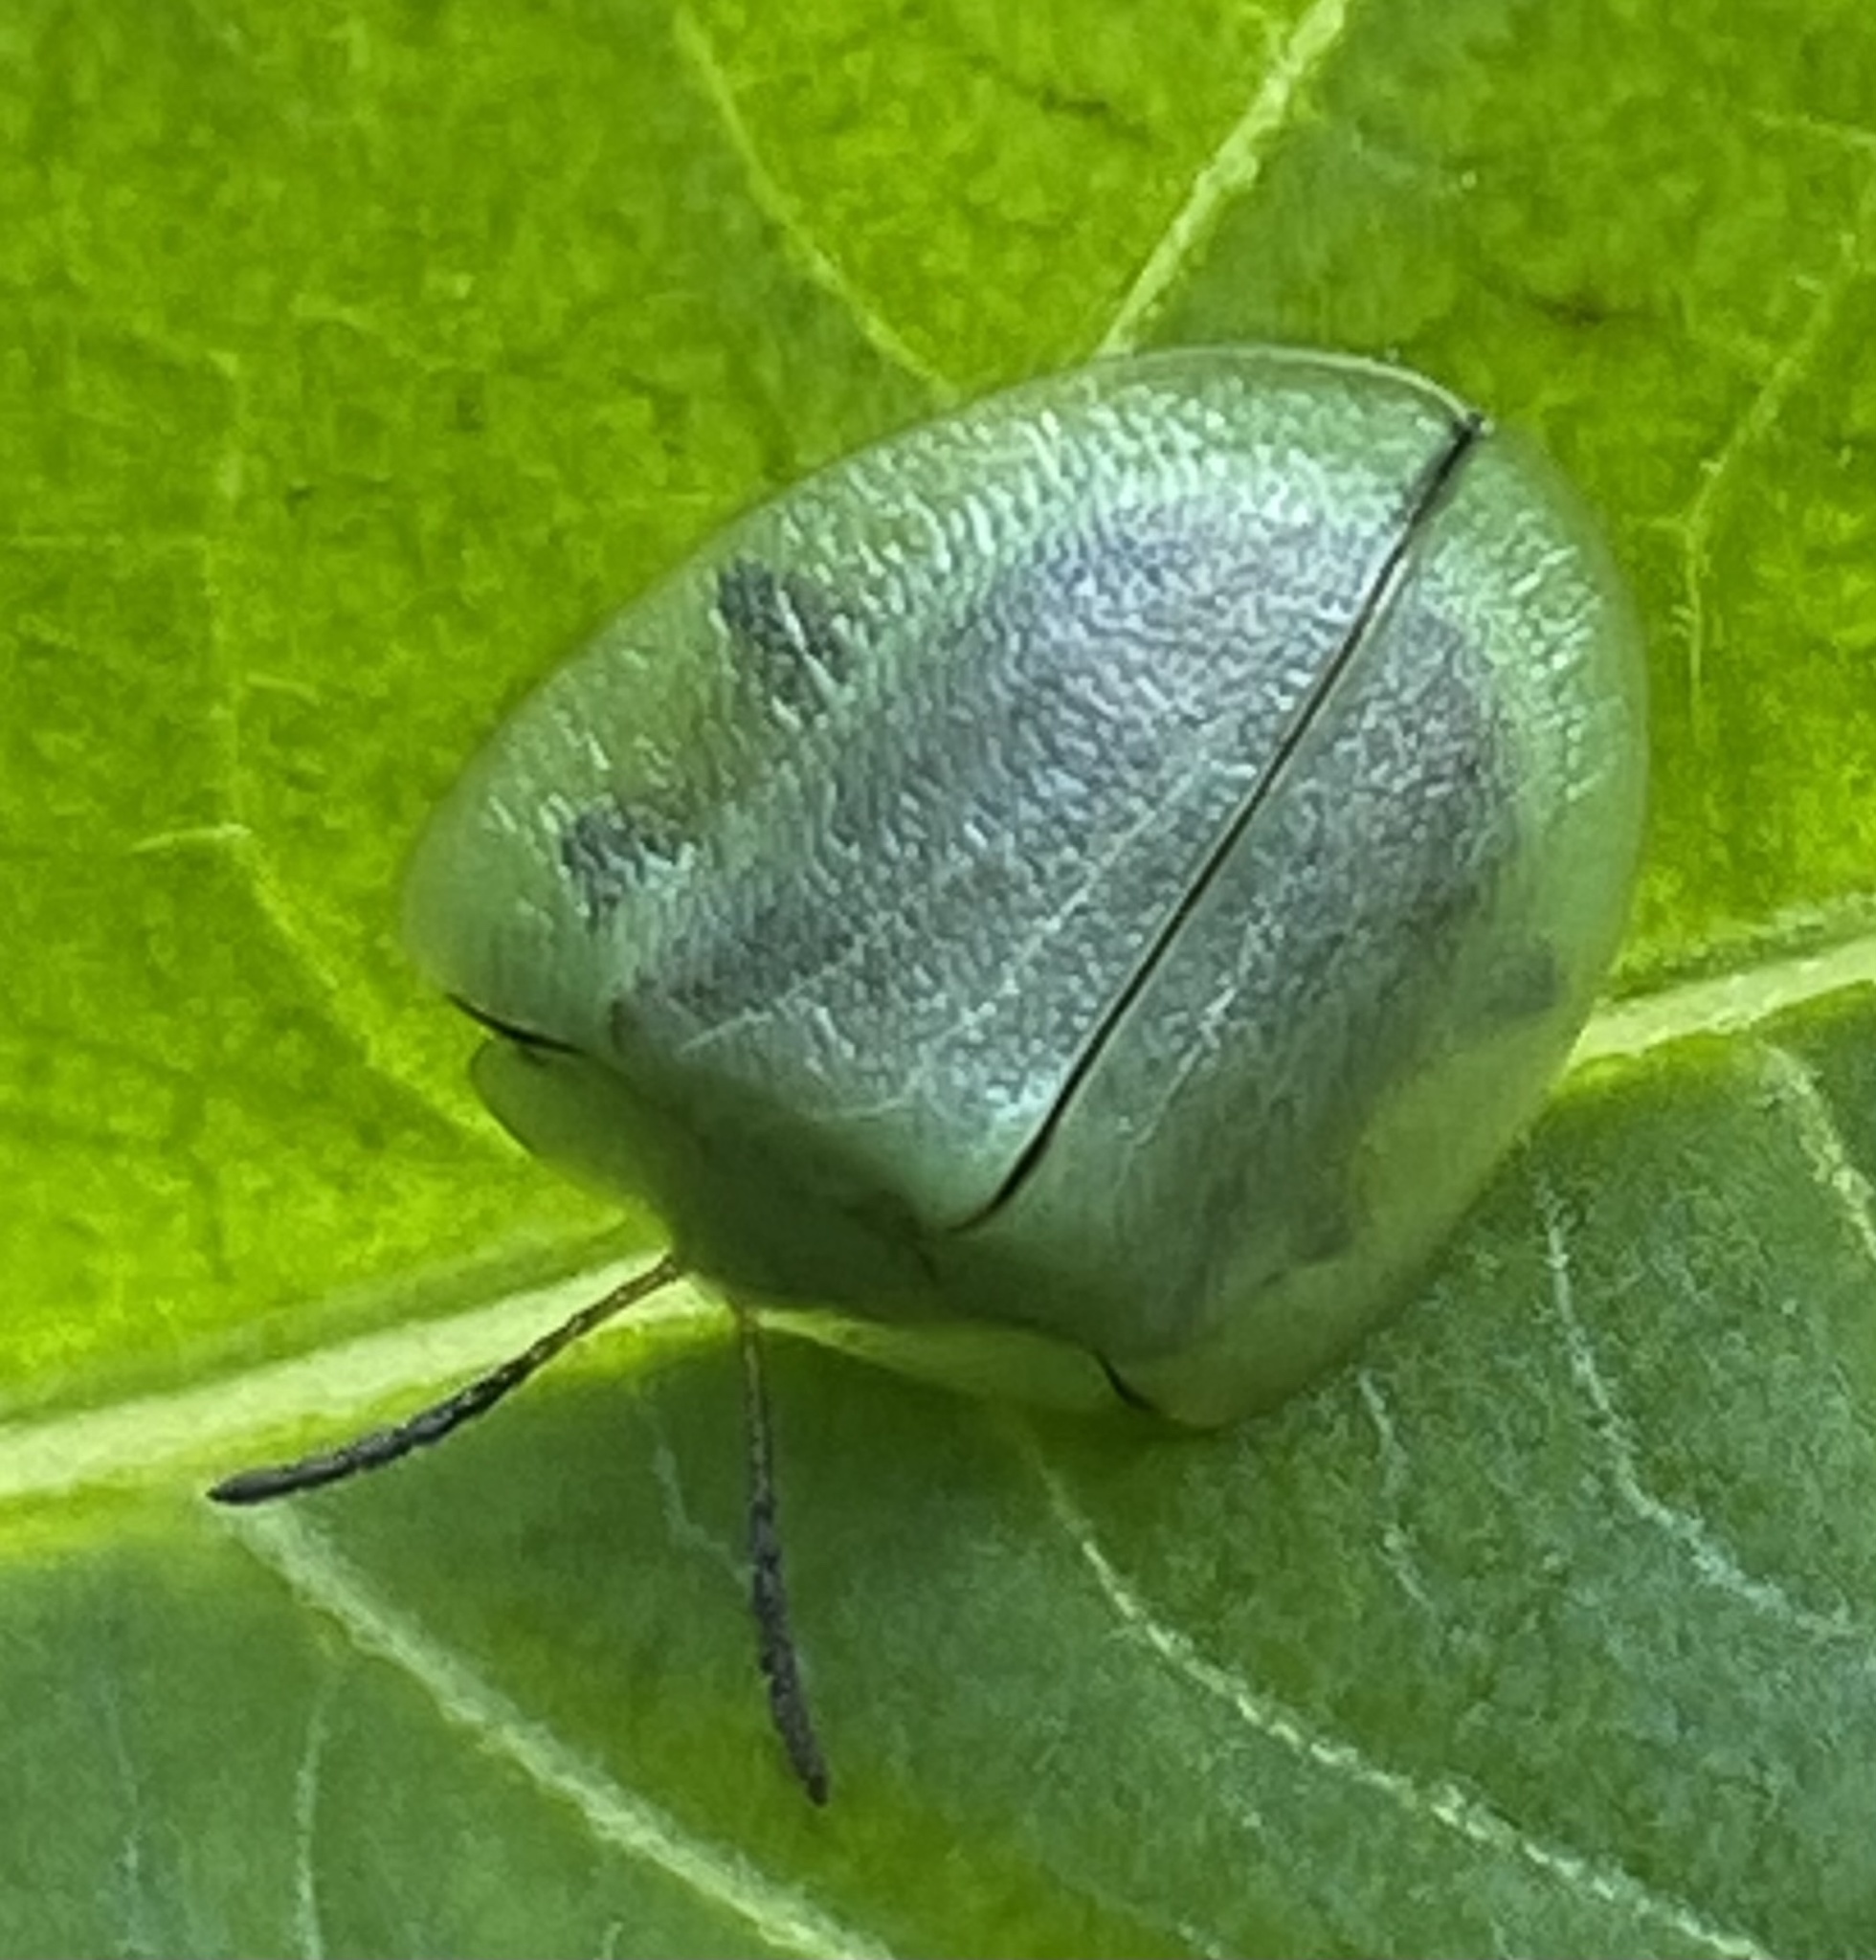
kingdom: Animalia
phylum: Arthropoda
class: Insecta
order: Coleoptera
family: Chrysomelidae
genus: Metriona
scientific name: Metriona elatior
